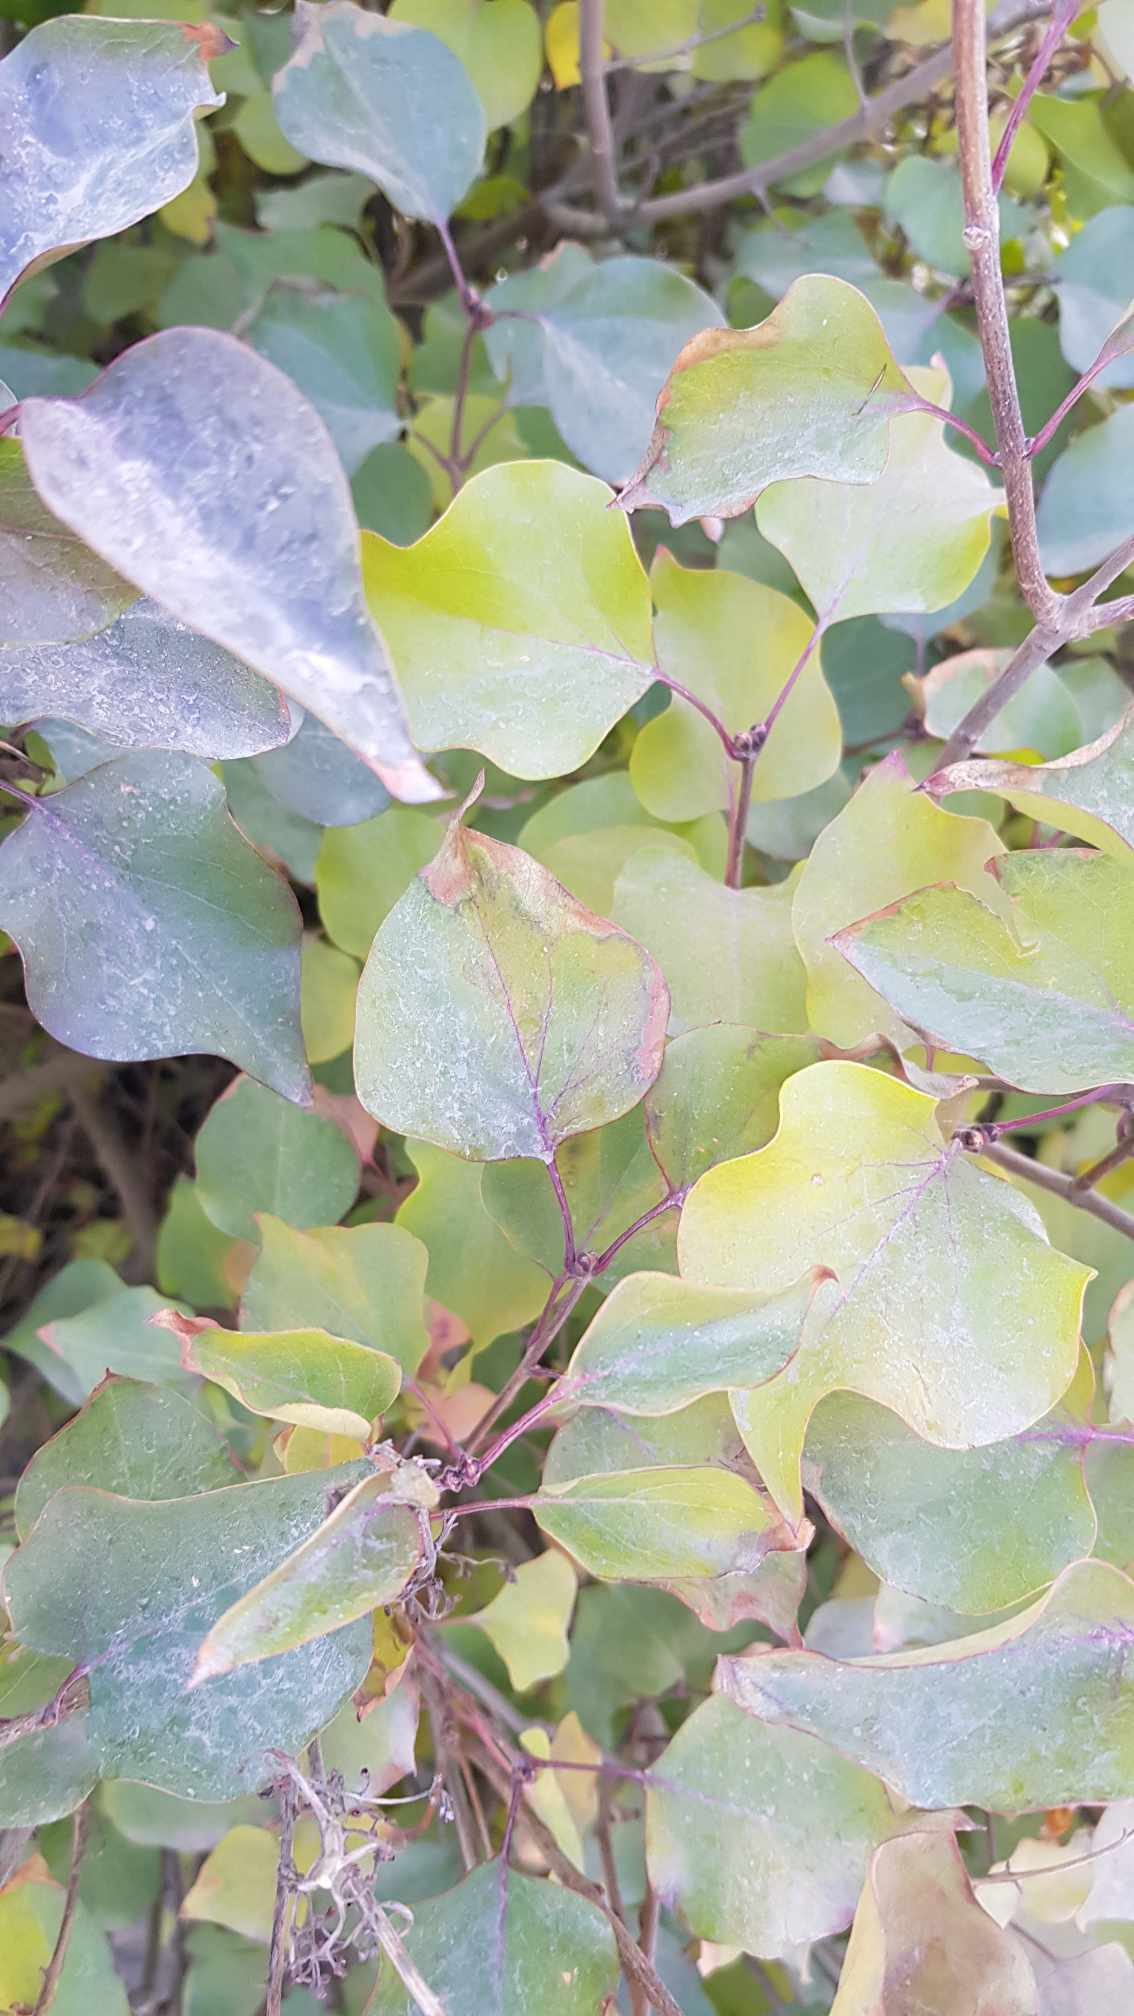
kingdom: Plantae
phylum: Tracheophyta
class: Magnoliopsida
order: Rosales
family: Rosaceae
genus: Prunus
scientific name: Prunus armeniaca
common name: Apricot
